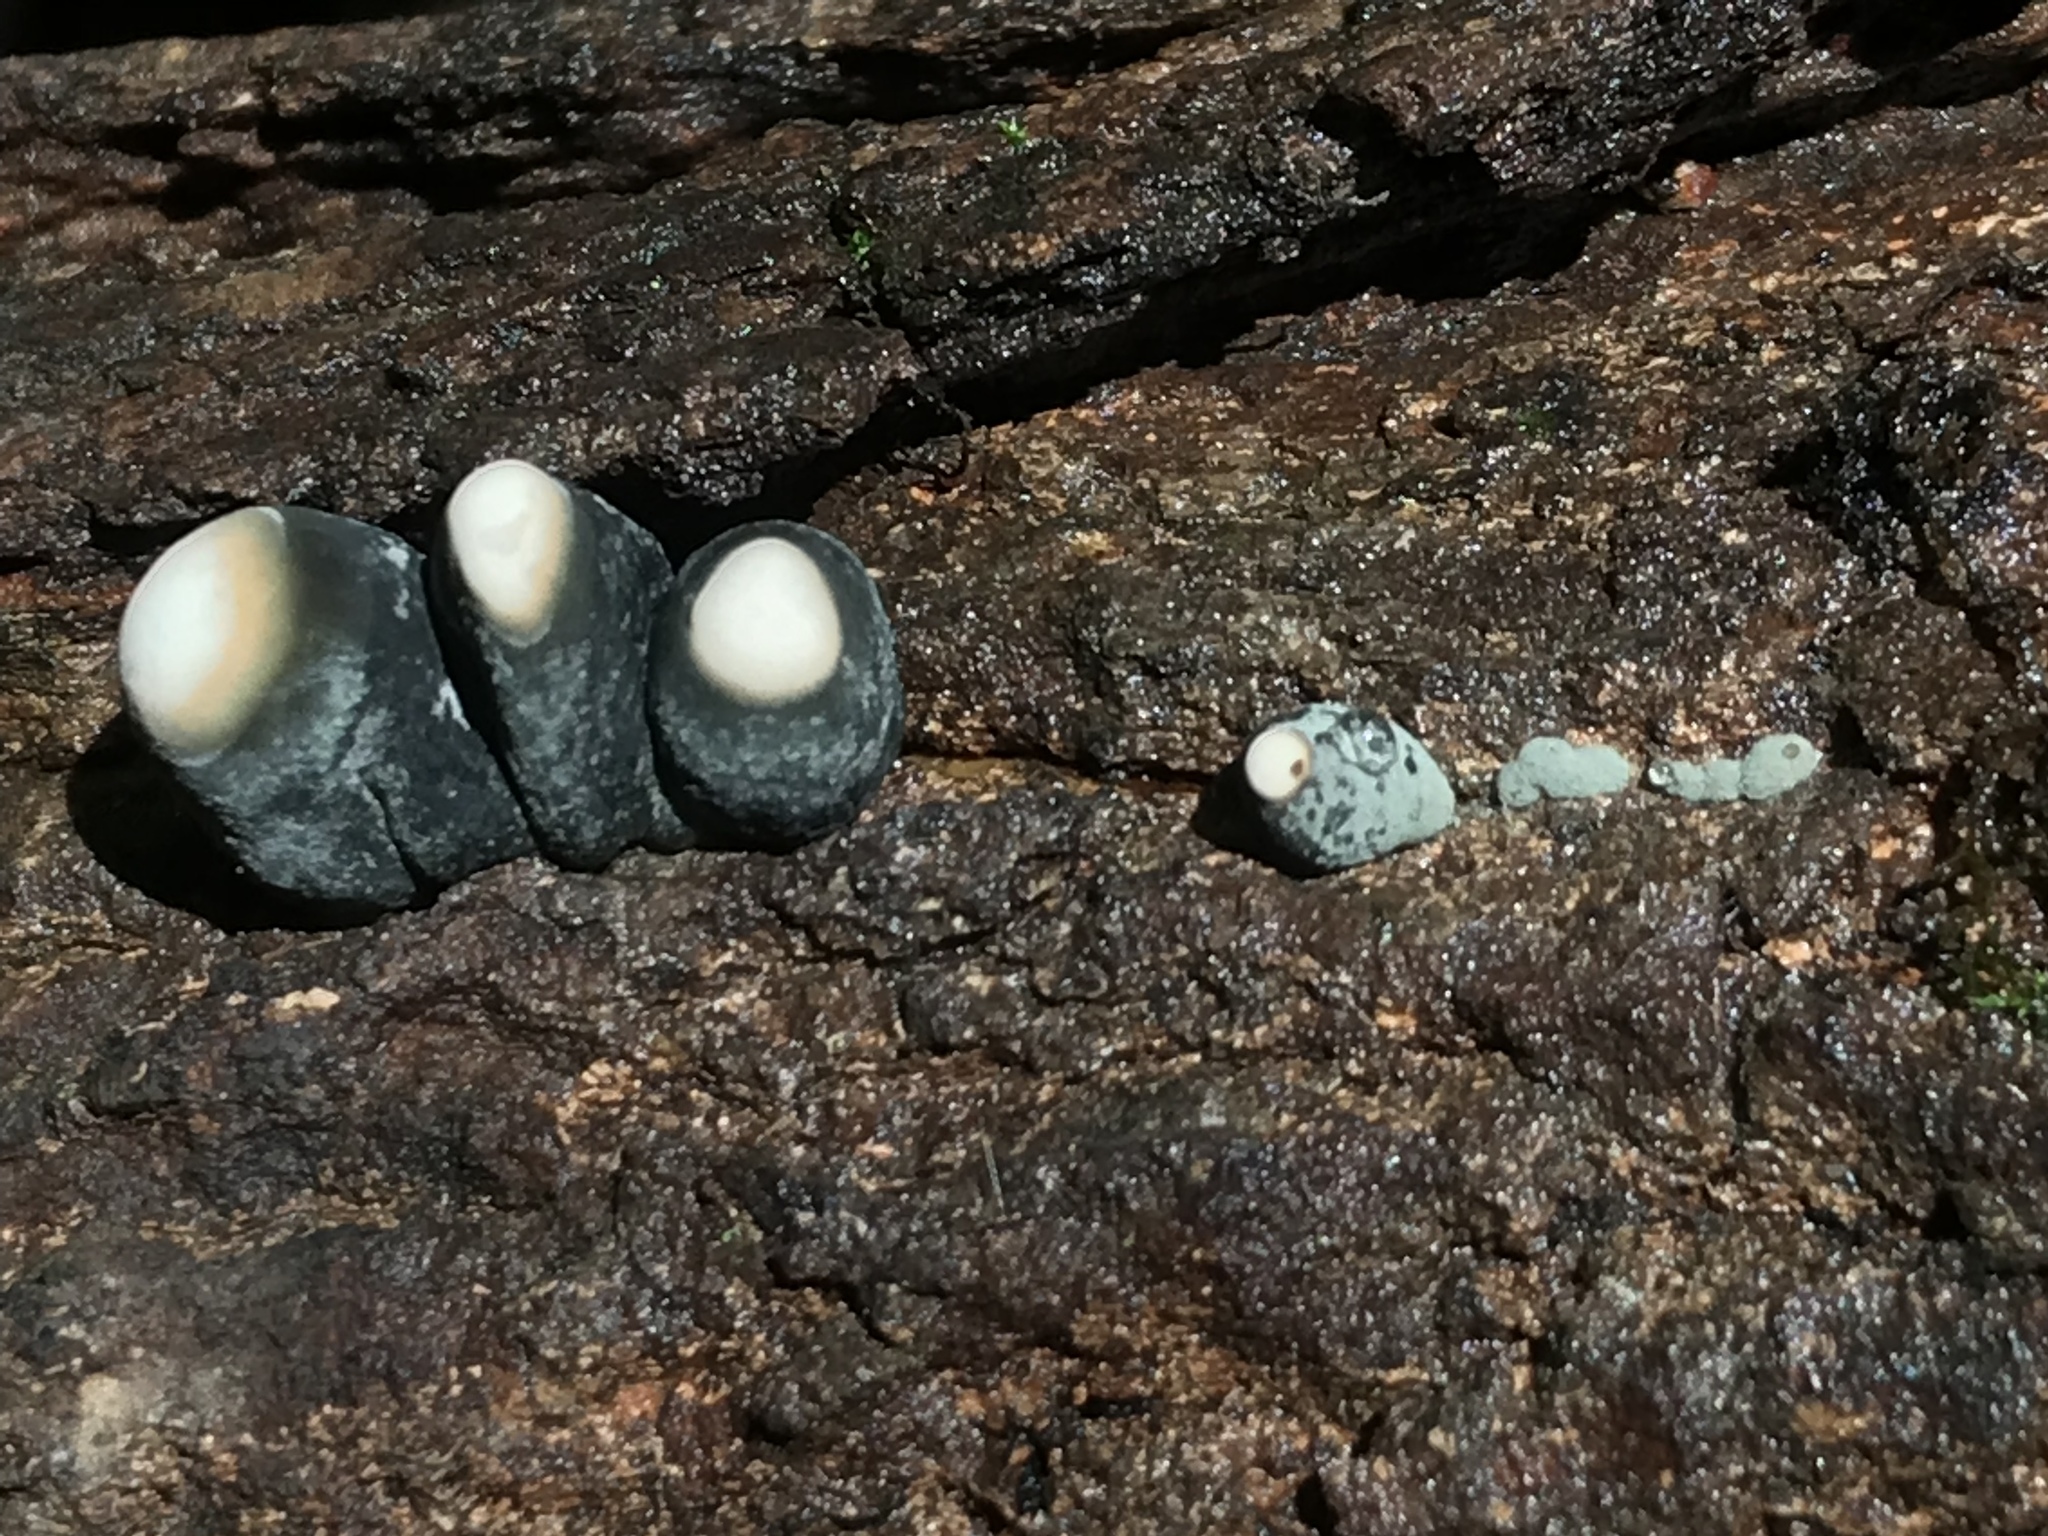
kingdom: Fungi
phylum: Ascomycota
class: Sordariomycetes
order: Xylariales
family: Xylariaceae
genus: Xylaria
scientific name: Xylaria polymorpha
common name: Dead man's fingers
